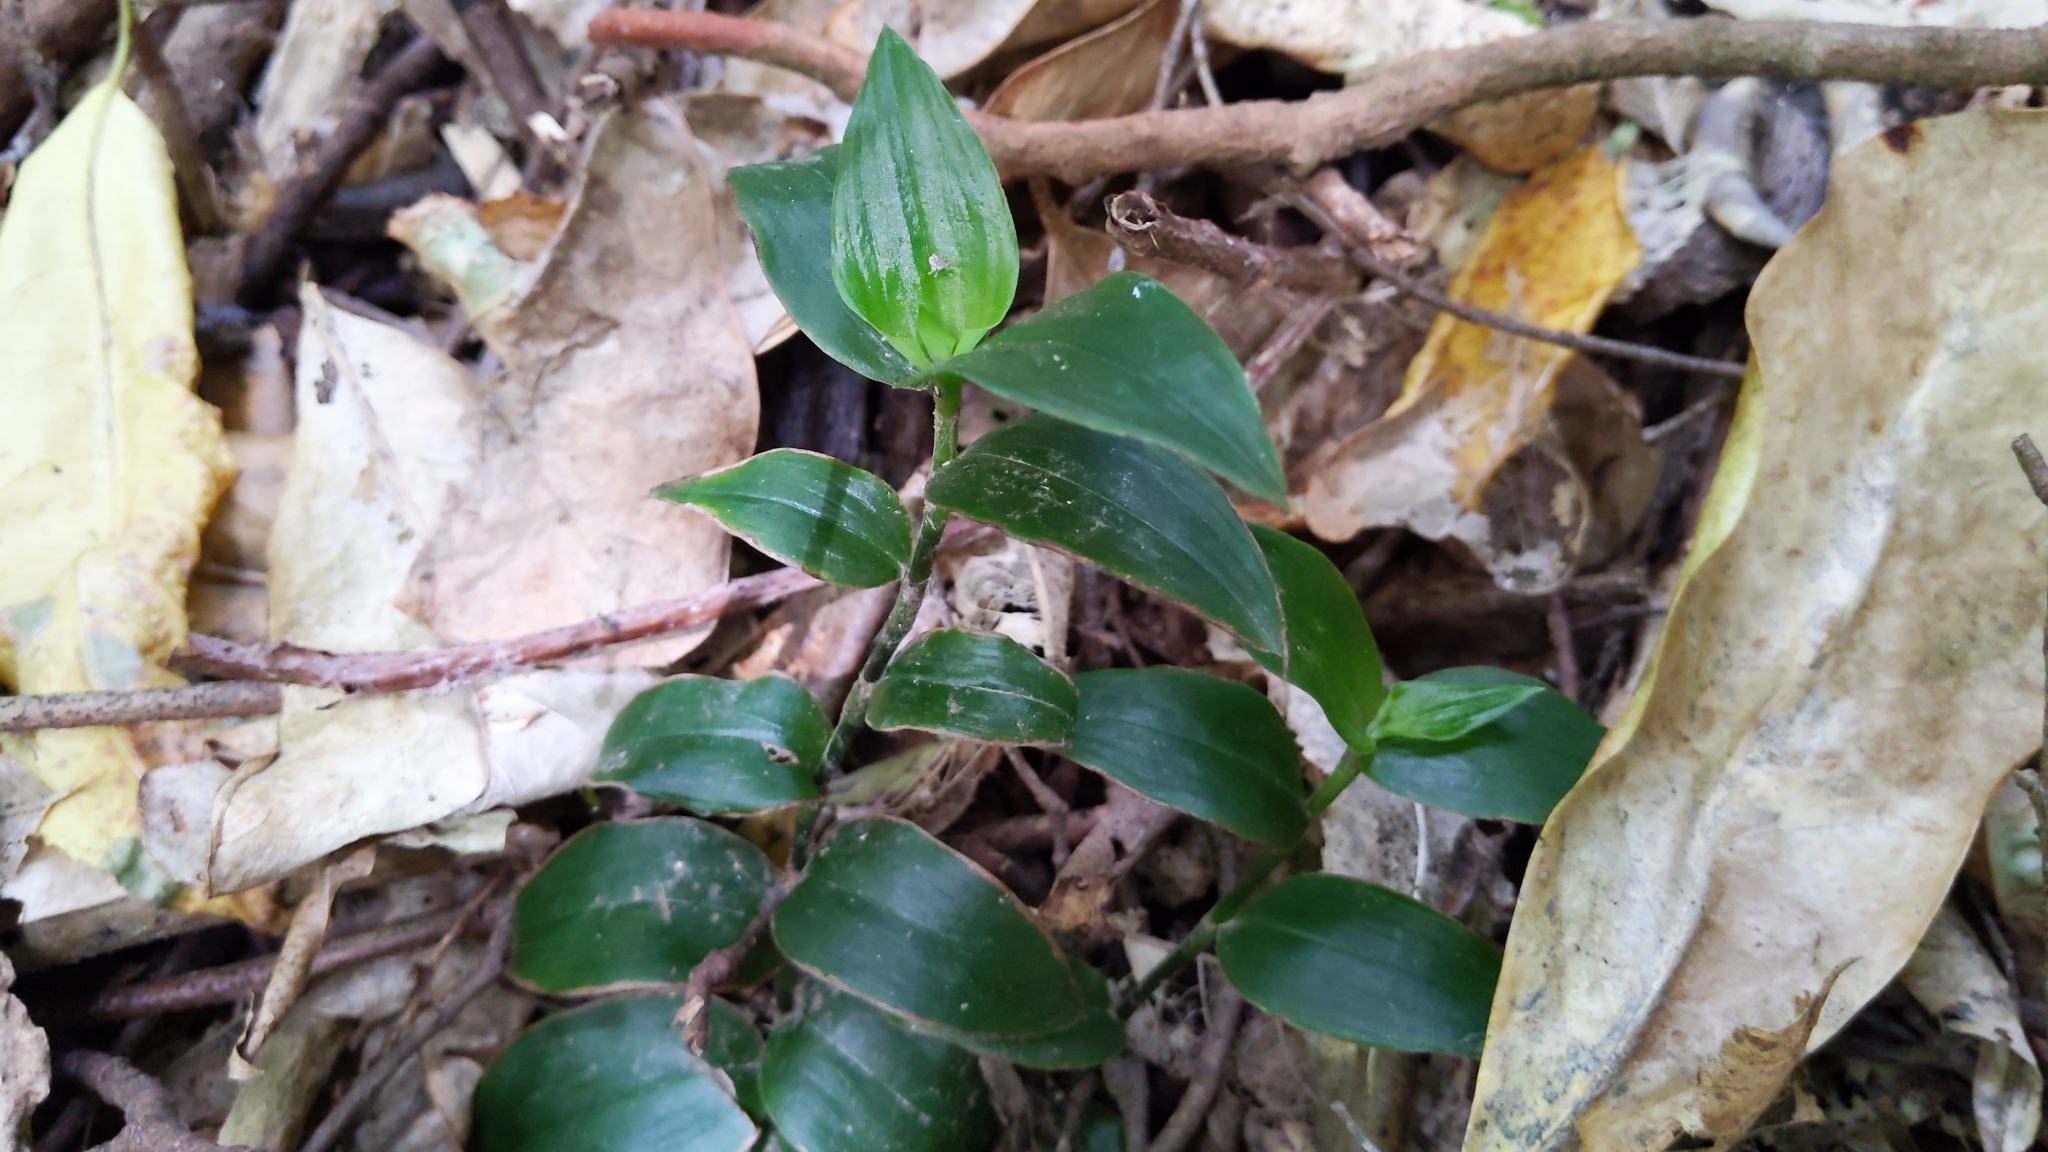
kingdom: Plantae
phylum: Tracheophyta
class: Liliopsida
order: Commelinales
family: Commelinaceae
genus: Tradescantia
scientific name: Tradescantia fluminensis
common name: Wandering-jew
